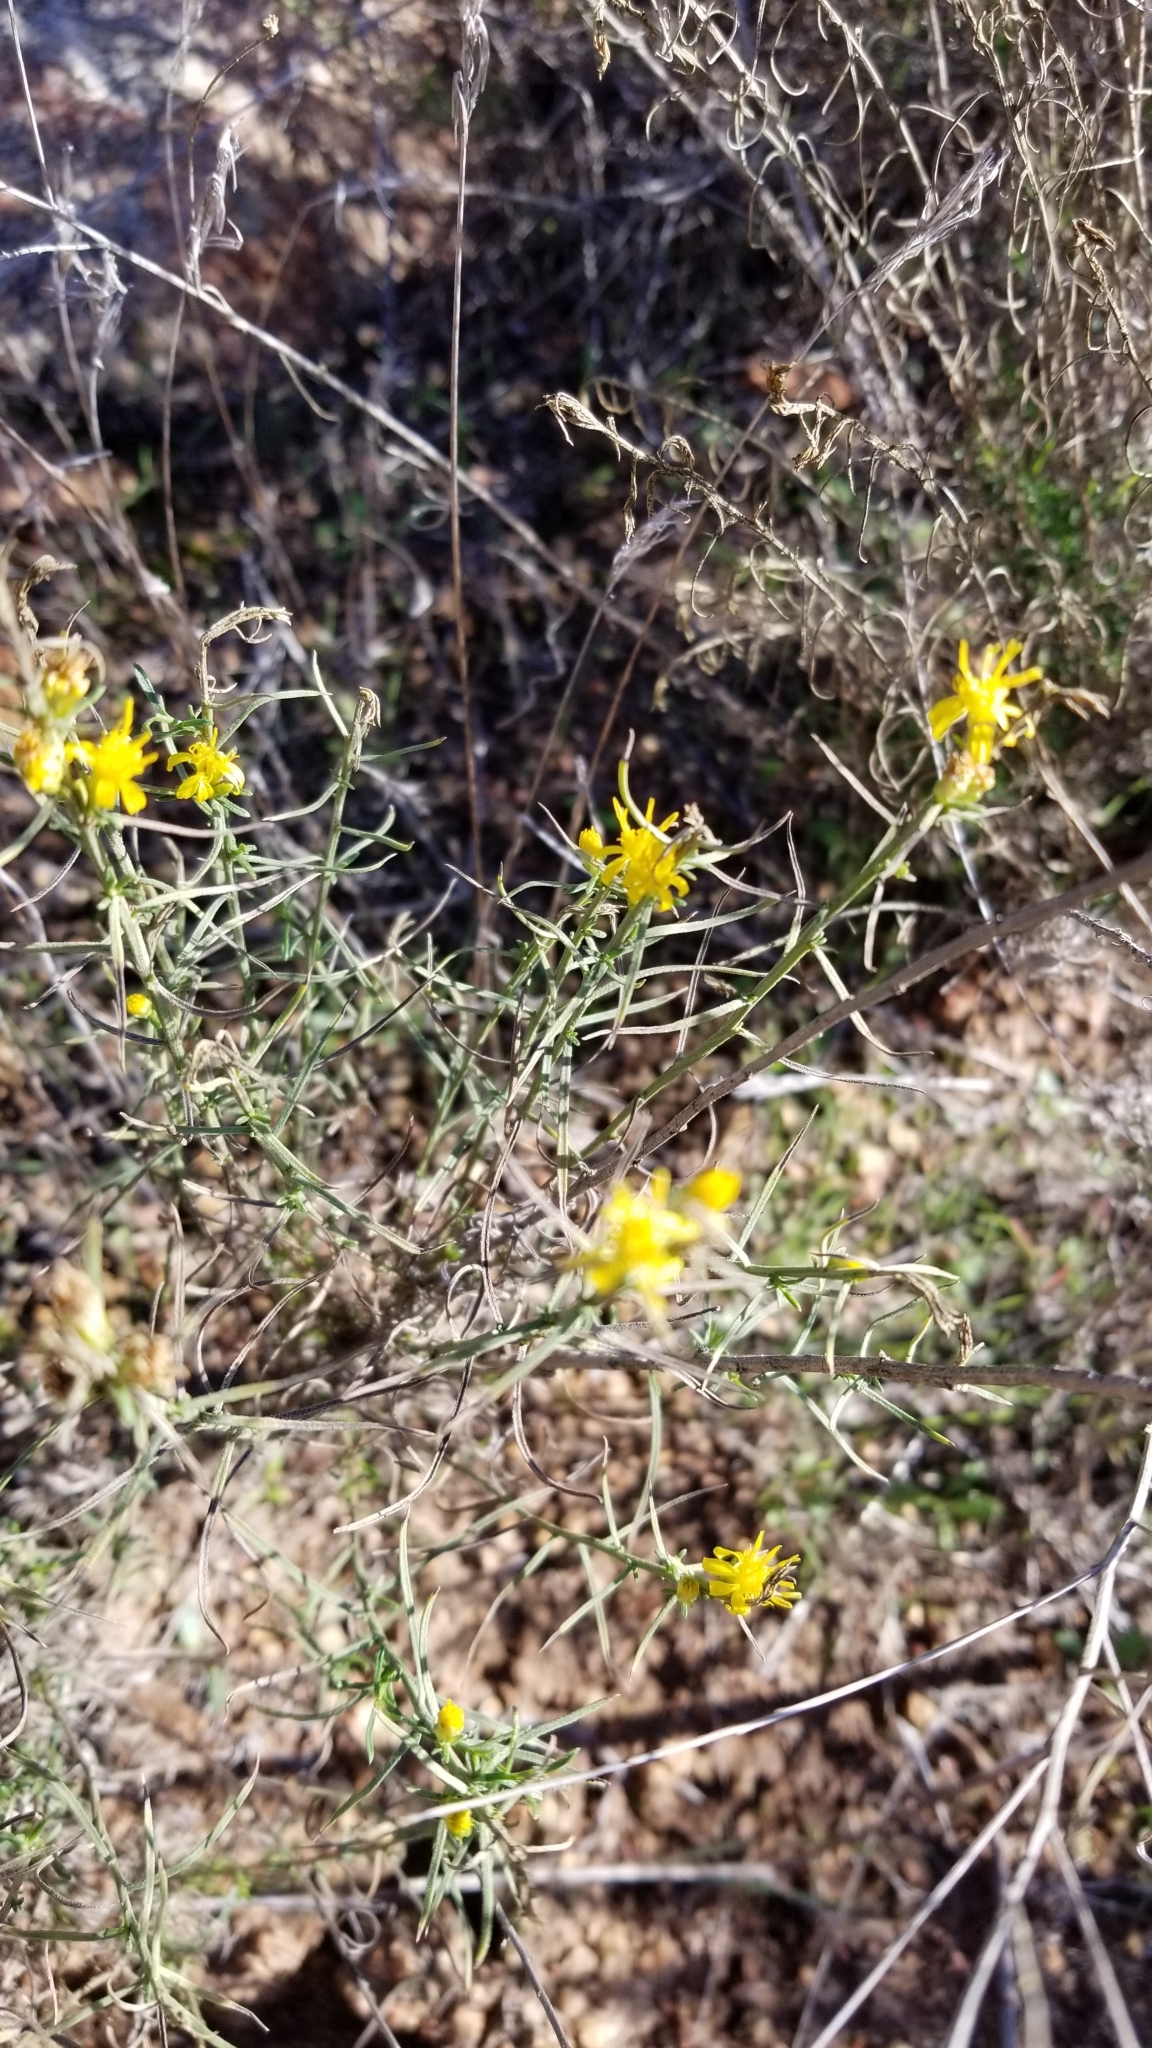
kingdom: Plantae
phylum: Tracheophyta
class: Magnoliopsida
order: Asterales
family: Asteraceae
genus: Gutierrezia
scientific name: Gutierrezia sarothrae
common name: Broom snakeweed
